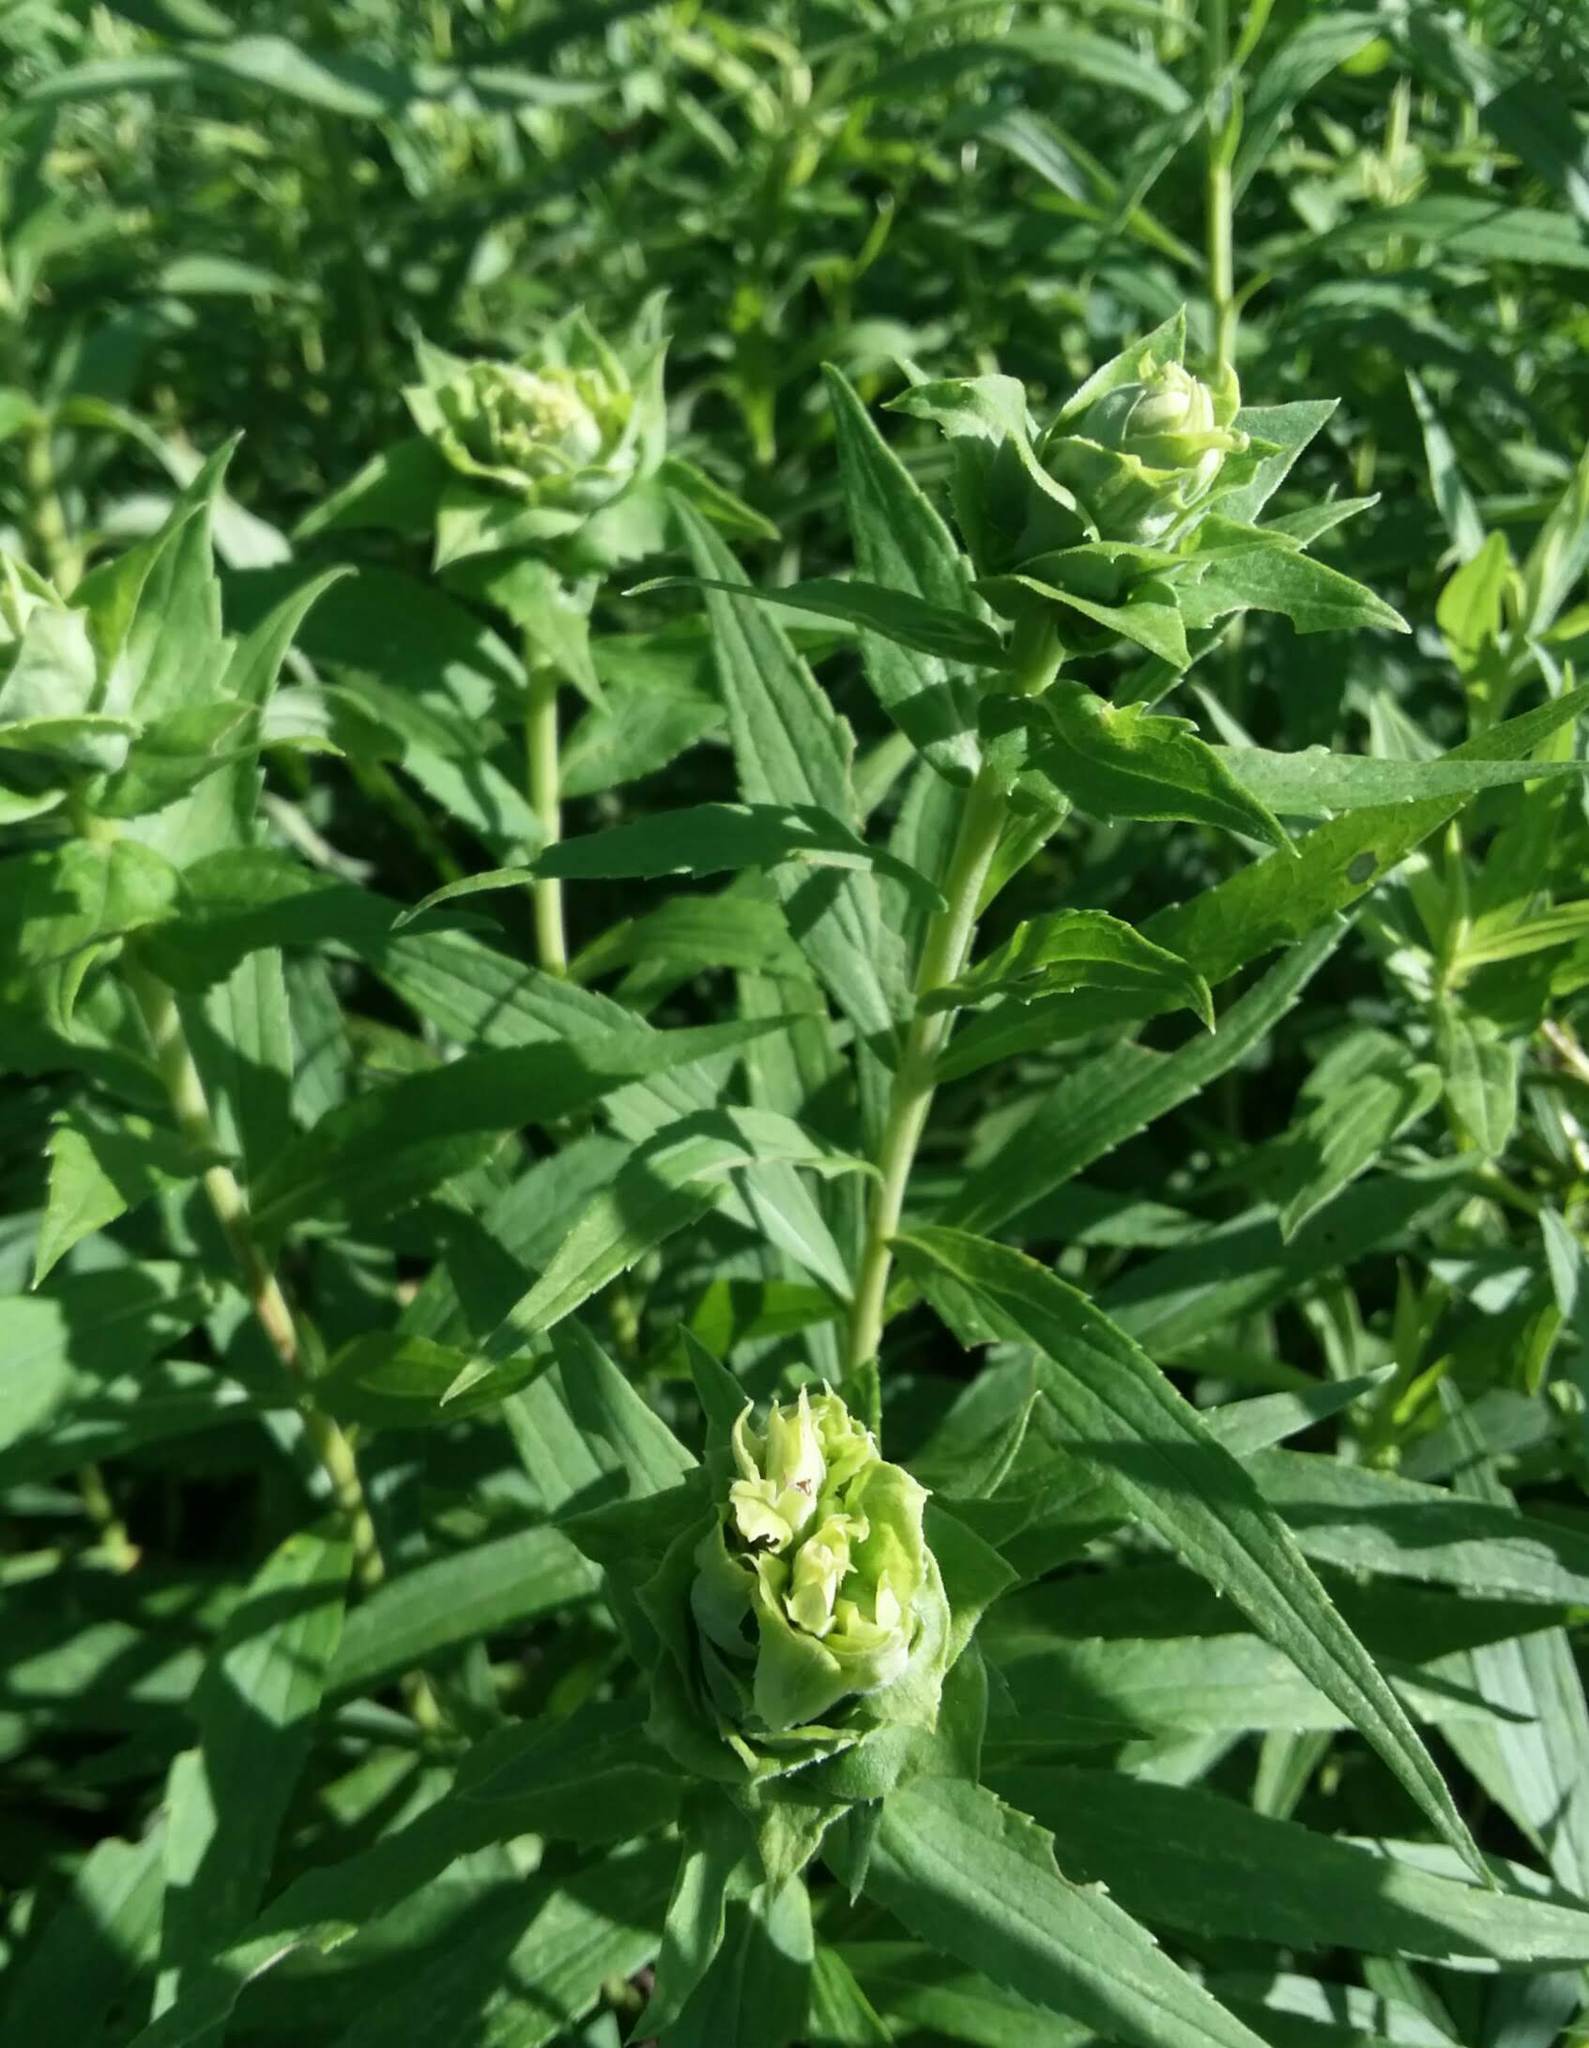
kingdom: Animalia
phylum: Arthropoda
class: Insecta
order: Diptera
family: Cecidomyiidae
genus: Rhopalomyia
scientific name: Rhopalomyia solidaginis
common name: Goldenrod bunch gall midge
